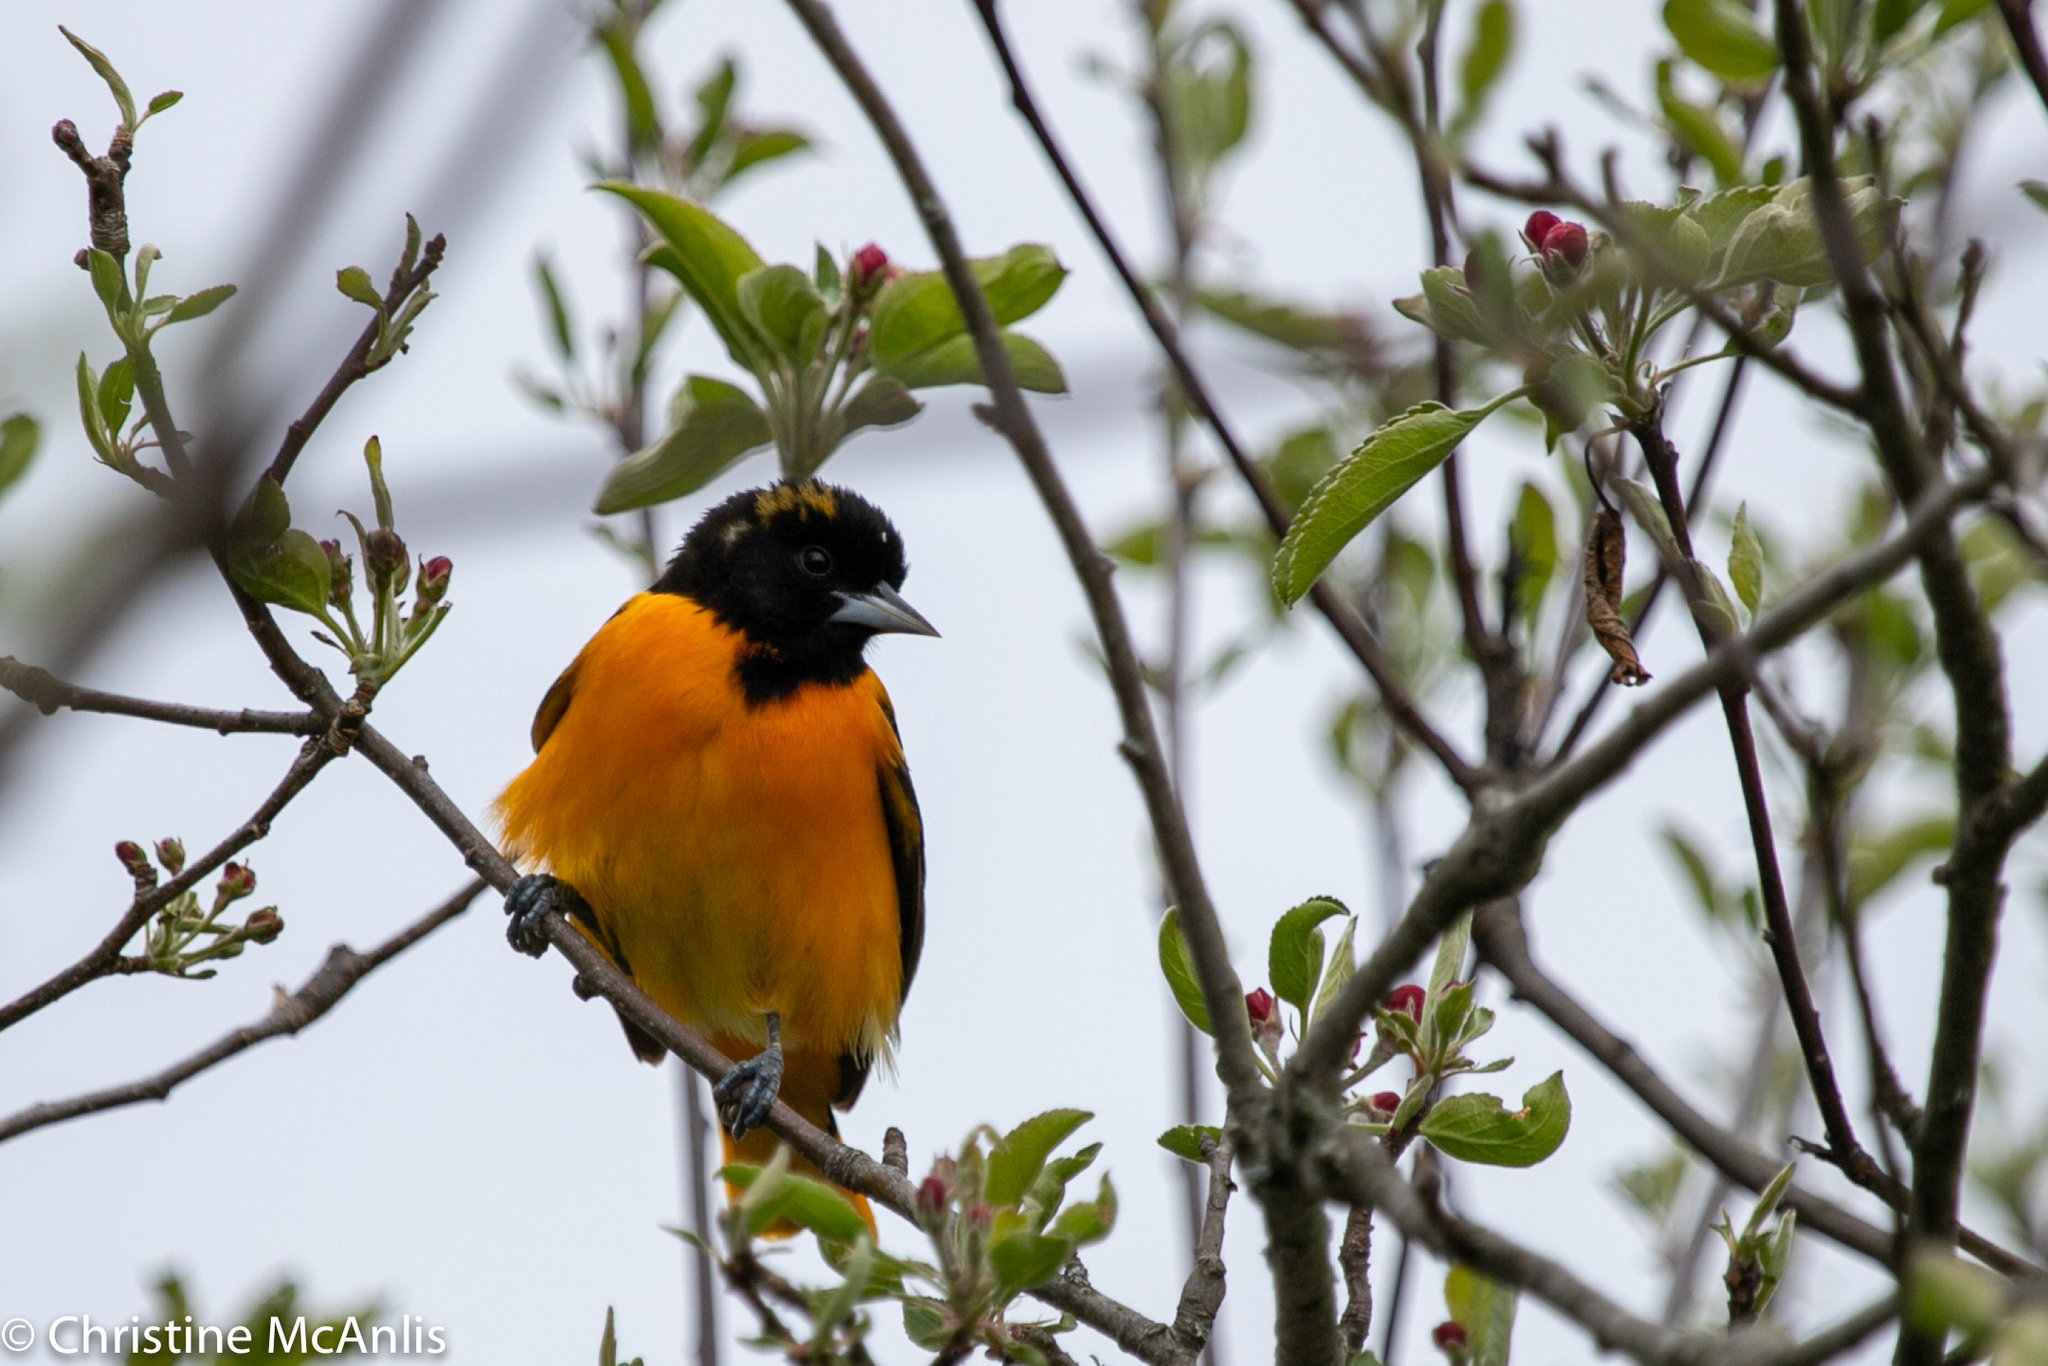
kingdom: Animalia
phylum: Chordata
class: Aves
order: Passeriformes
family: Icteridae
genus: Icterus
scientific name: Icterus galbula
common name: Baltimore oriole
